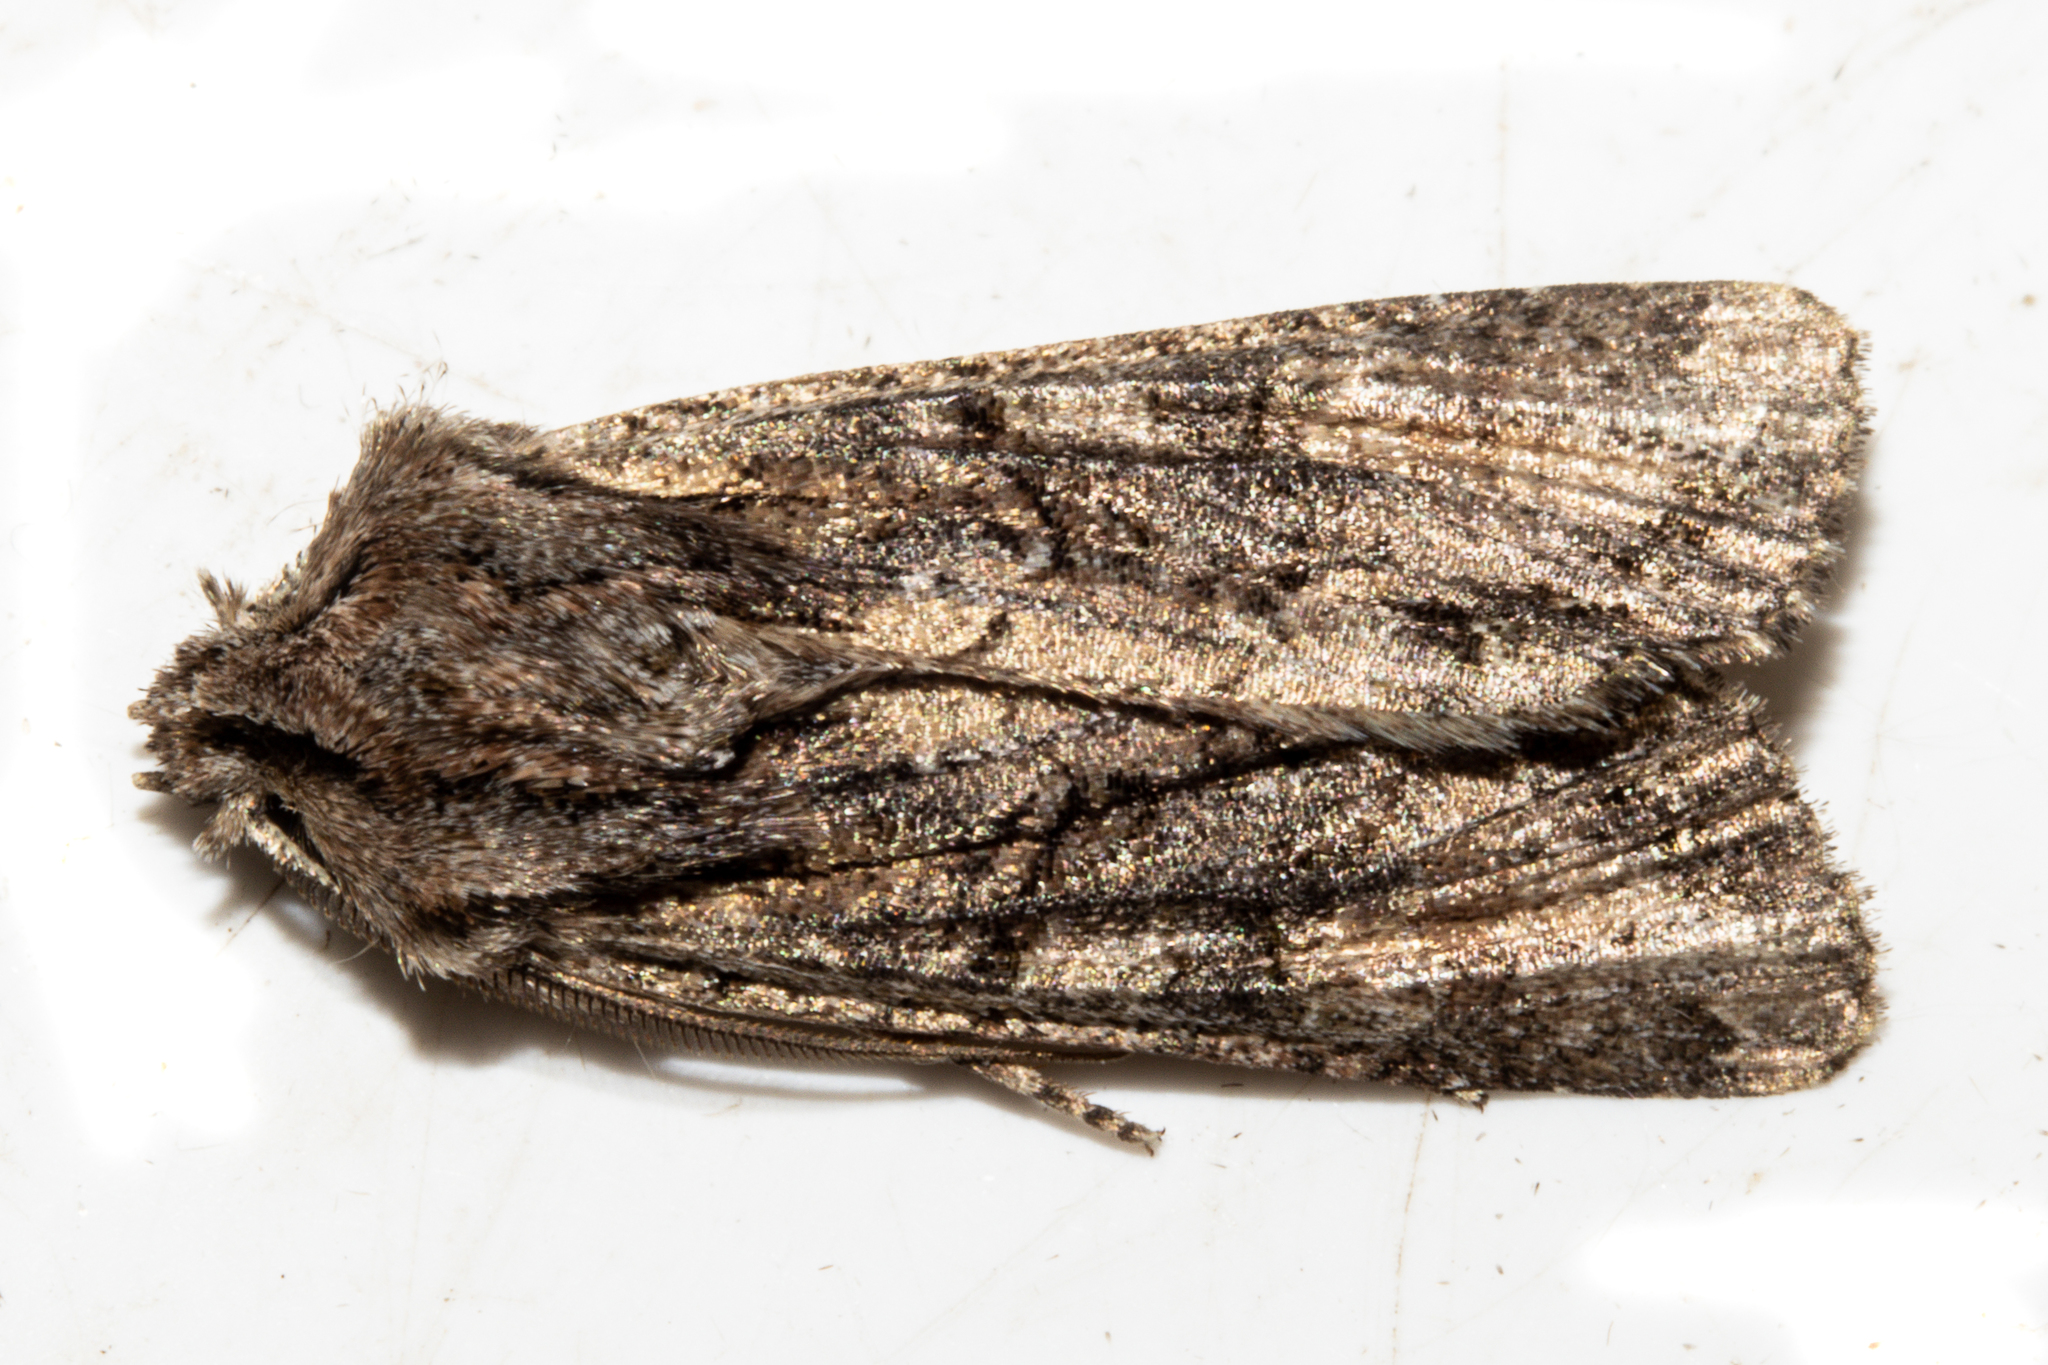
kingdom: Animalia
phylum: Arthropoda
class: Insecta
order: Lepidoptera
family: Noctuidae
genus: Ichneutica
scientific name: Ichneutica mutans
